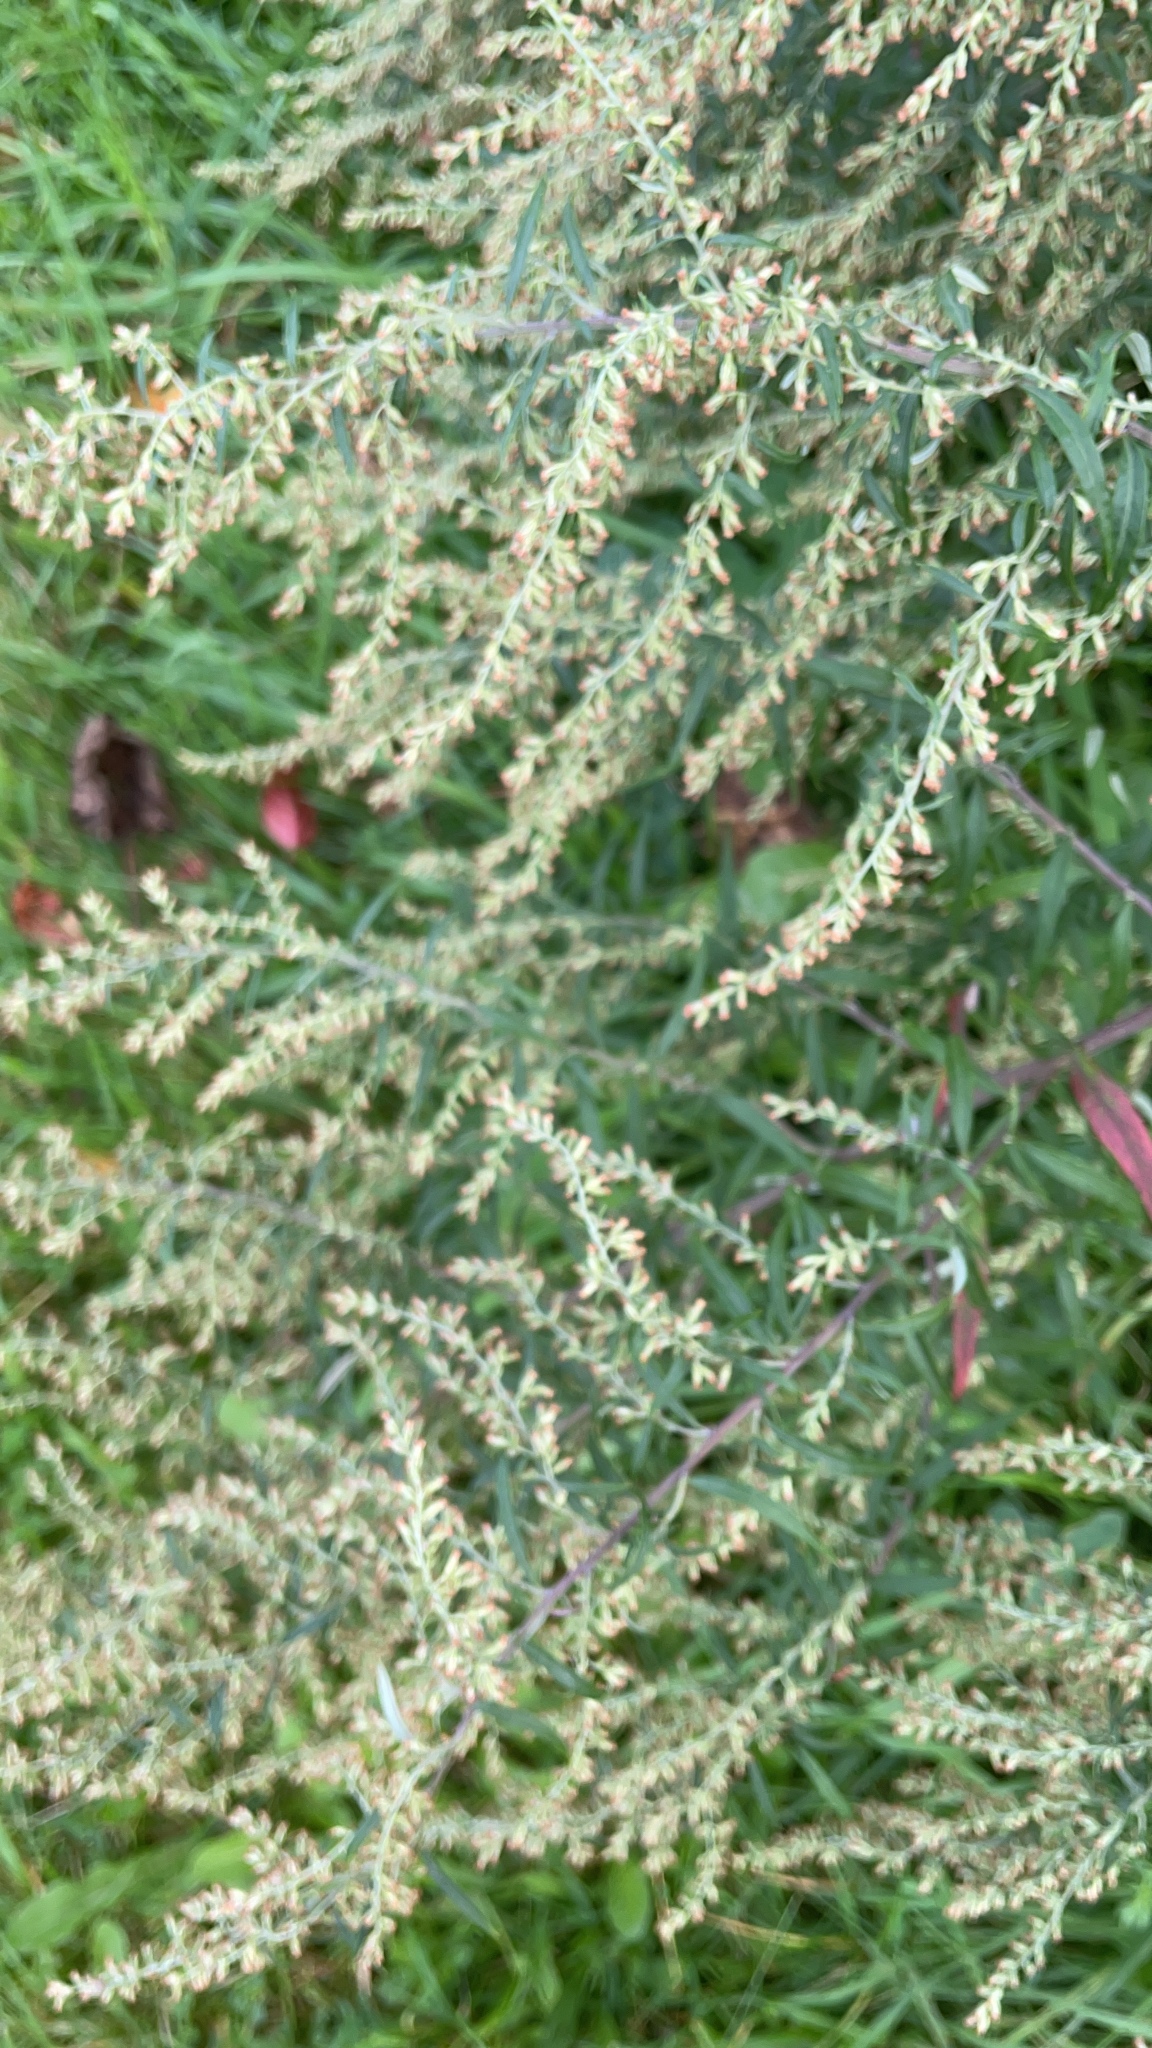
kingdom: Plantae
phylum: Tracheophyta
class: Magnoliopsida
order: Asterales
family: Asteraceae
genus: Artemisia
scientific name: Artemisia vulgaris
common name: Mugwort
